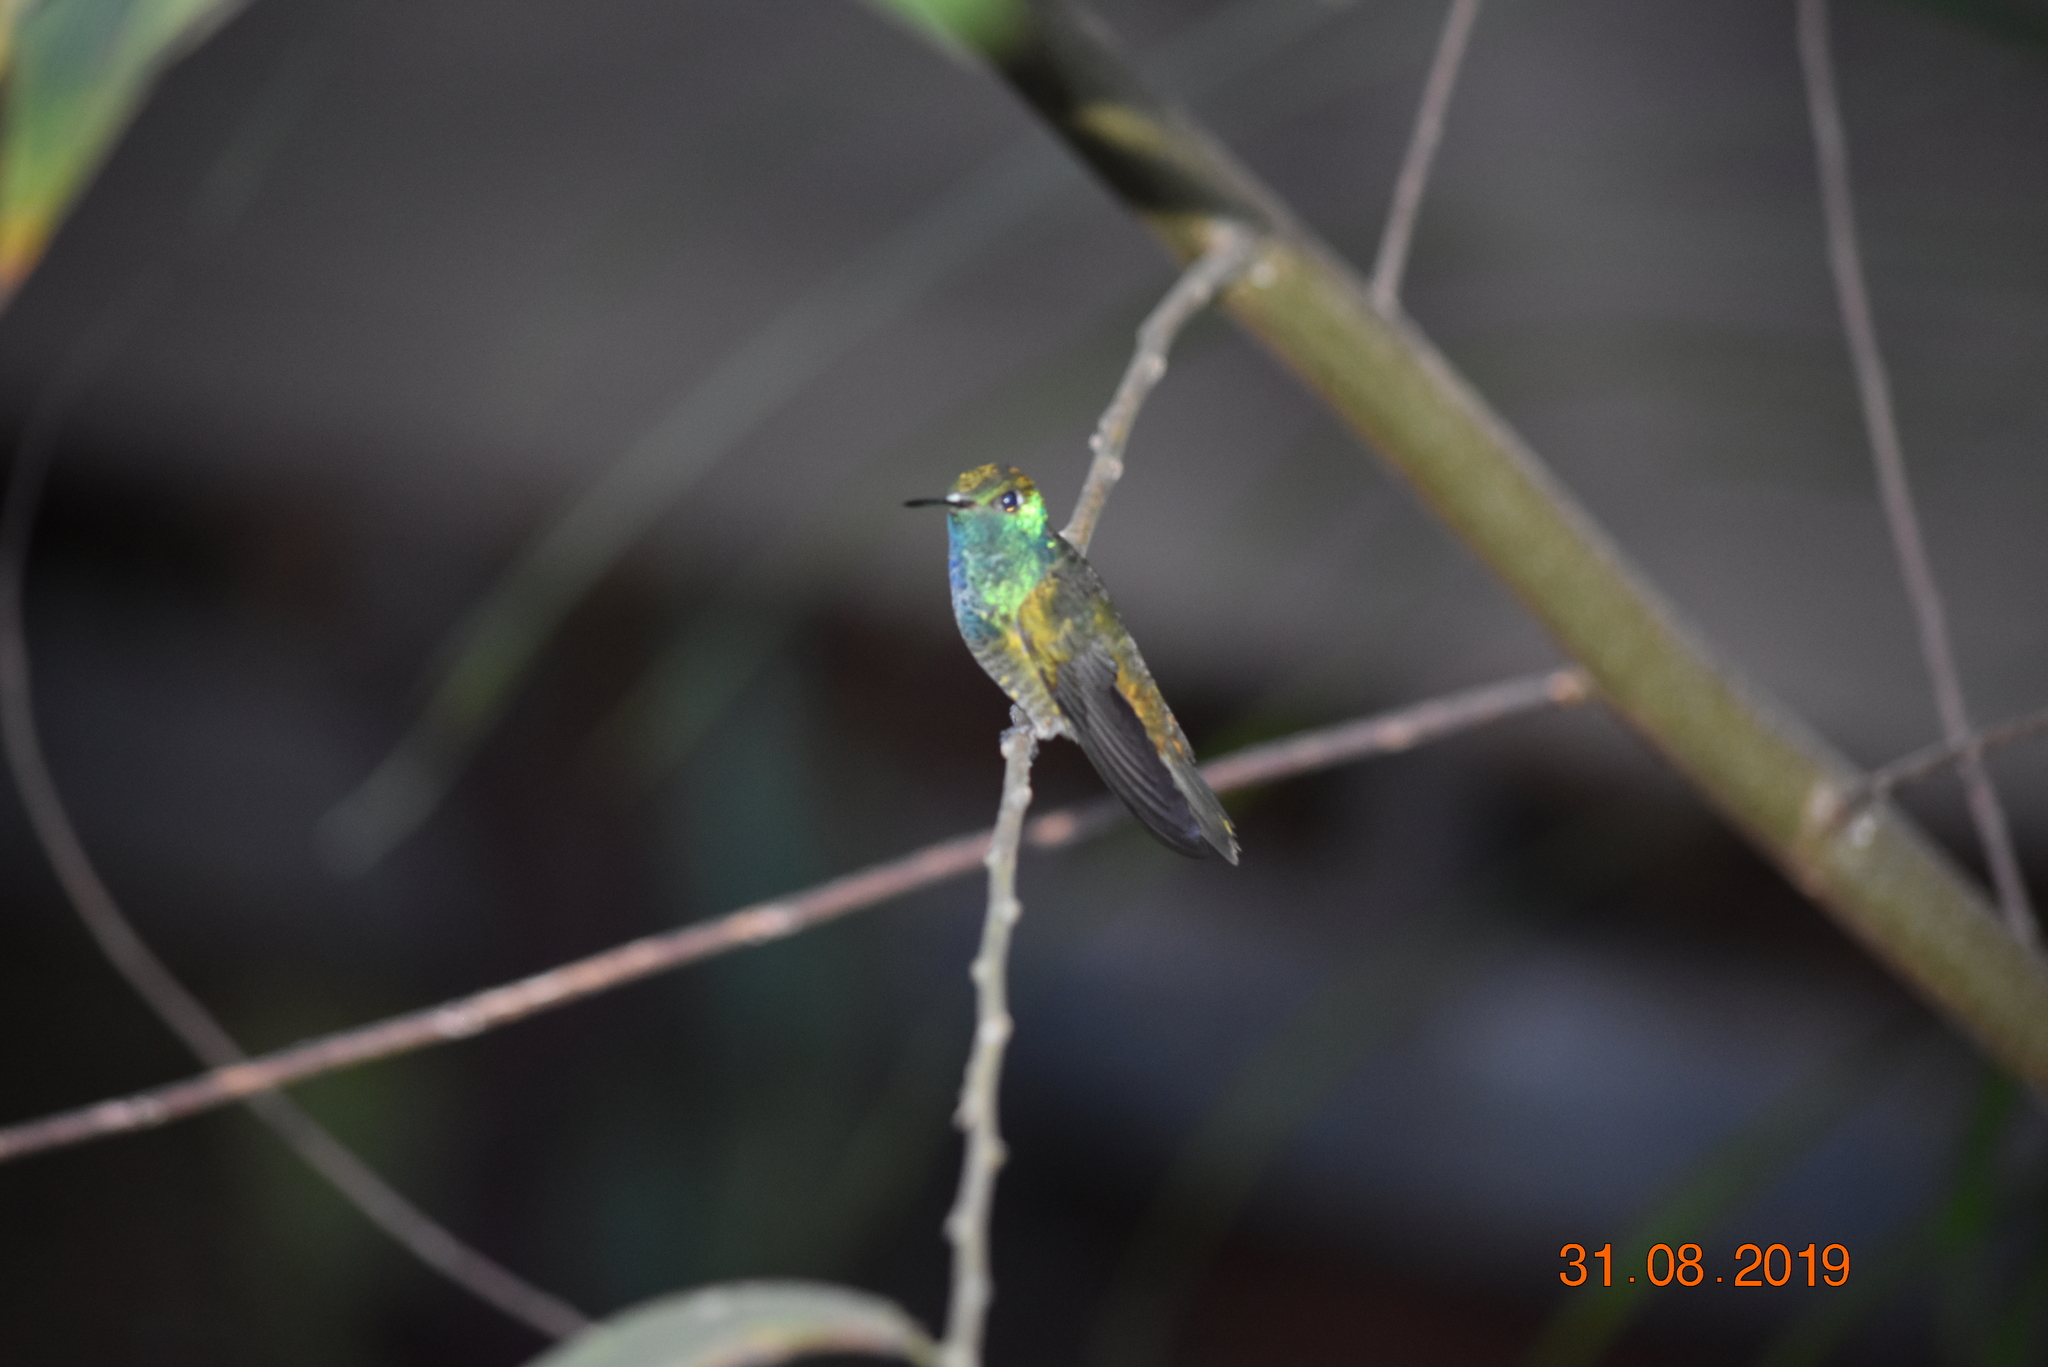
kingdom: Animalia
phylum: Chordata
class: Aves
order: Apodiformes
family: Trochilidae
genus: Chrysuronia
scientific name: Chrysuronia versicolor
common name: Versicolored emerald
